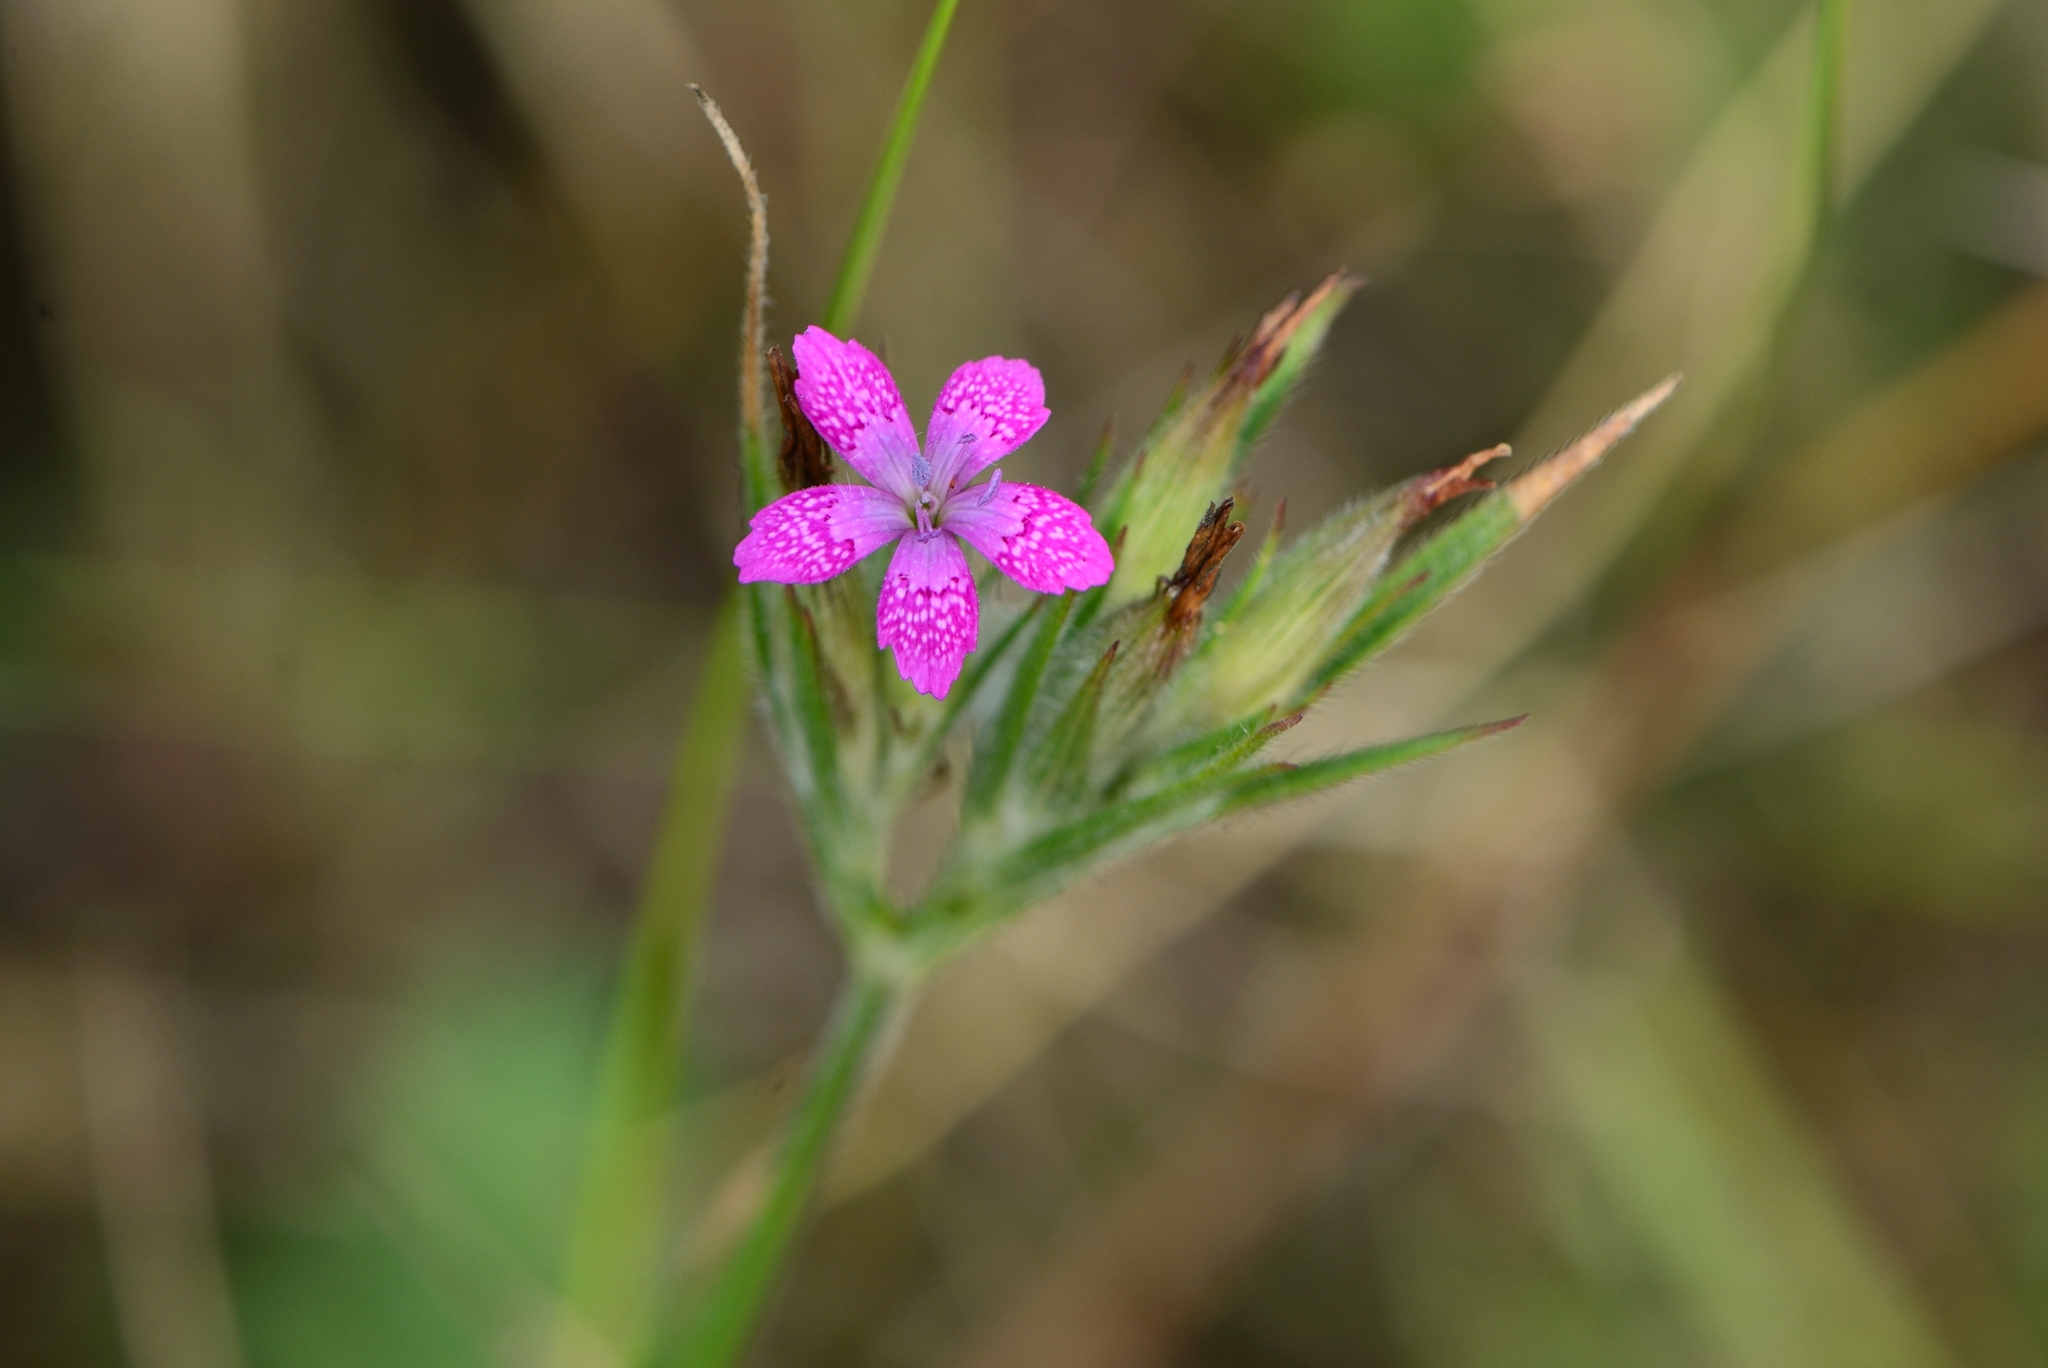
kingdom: Plantae
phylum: Tracheophyta
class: Magnoliopsida
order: Caryophyllales
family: Caryophyllaceae
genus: Dianthus
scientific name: Dianthus armeria
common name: Deptford pink
